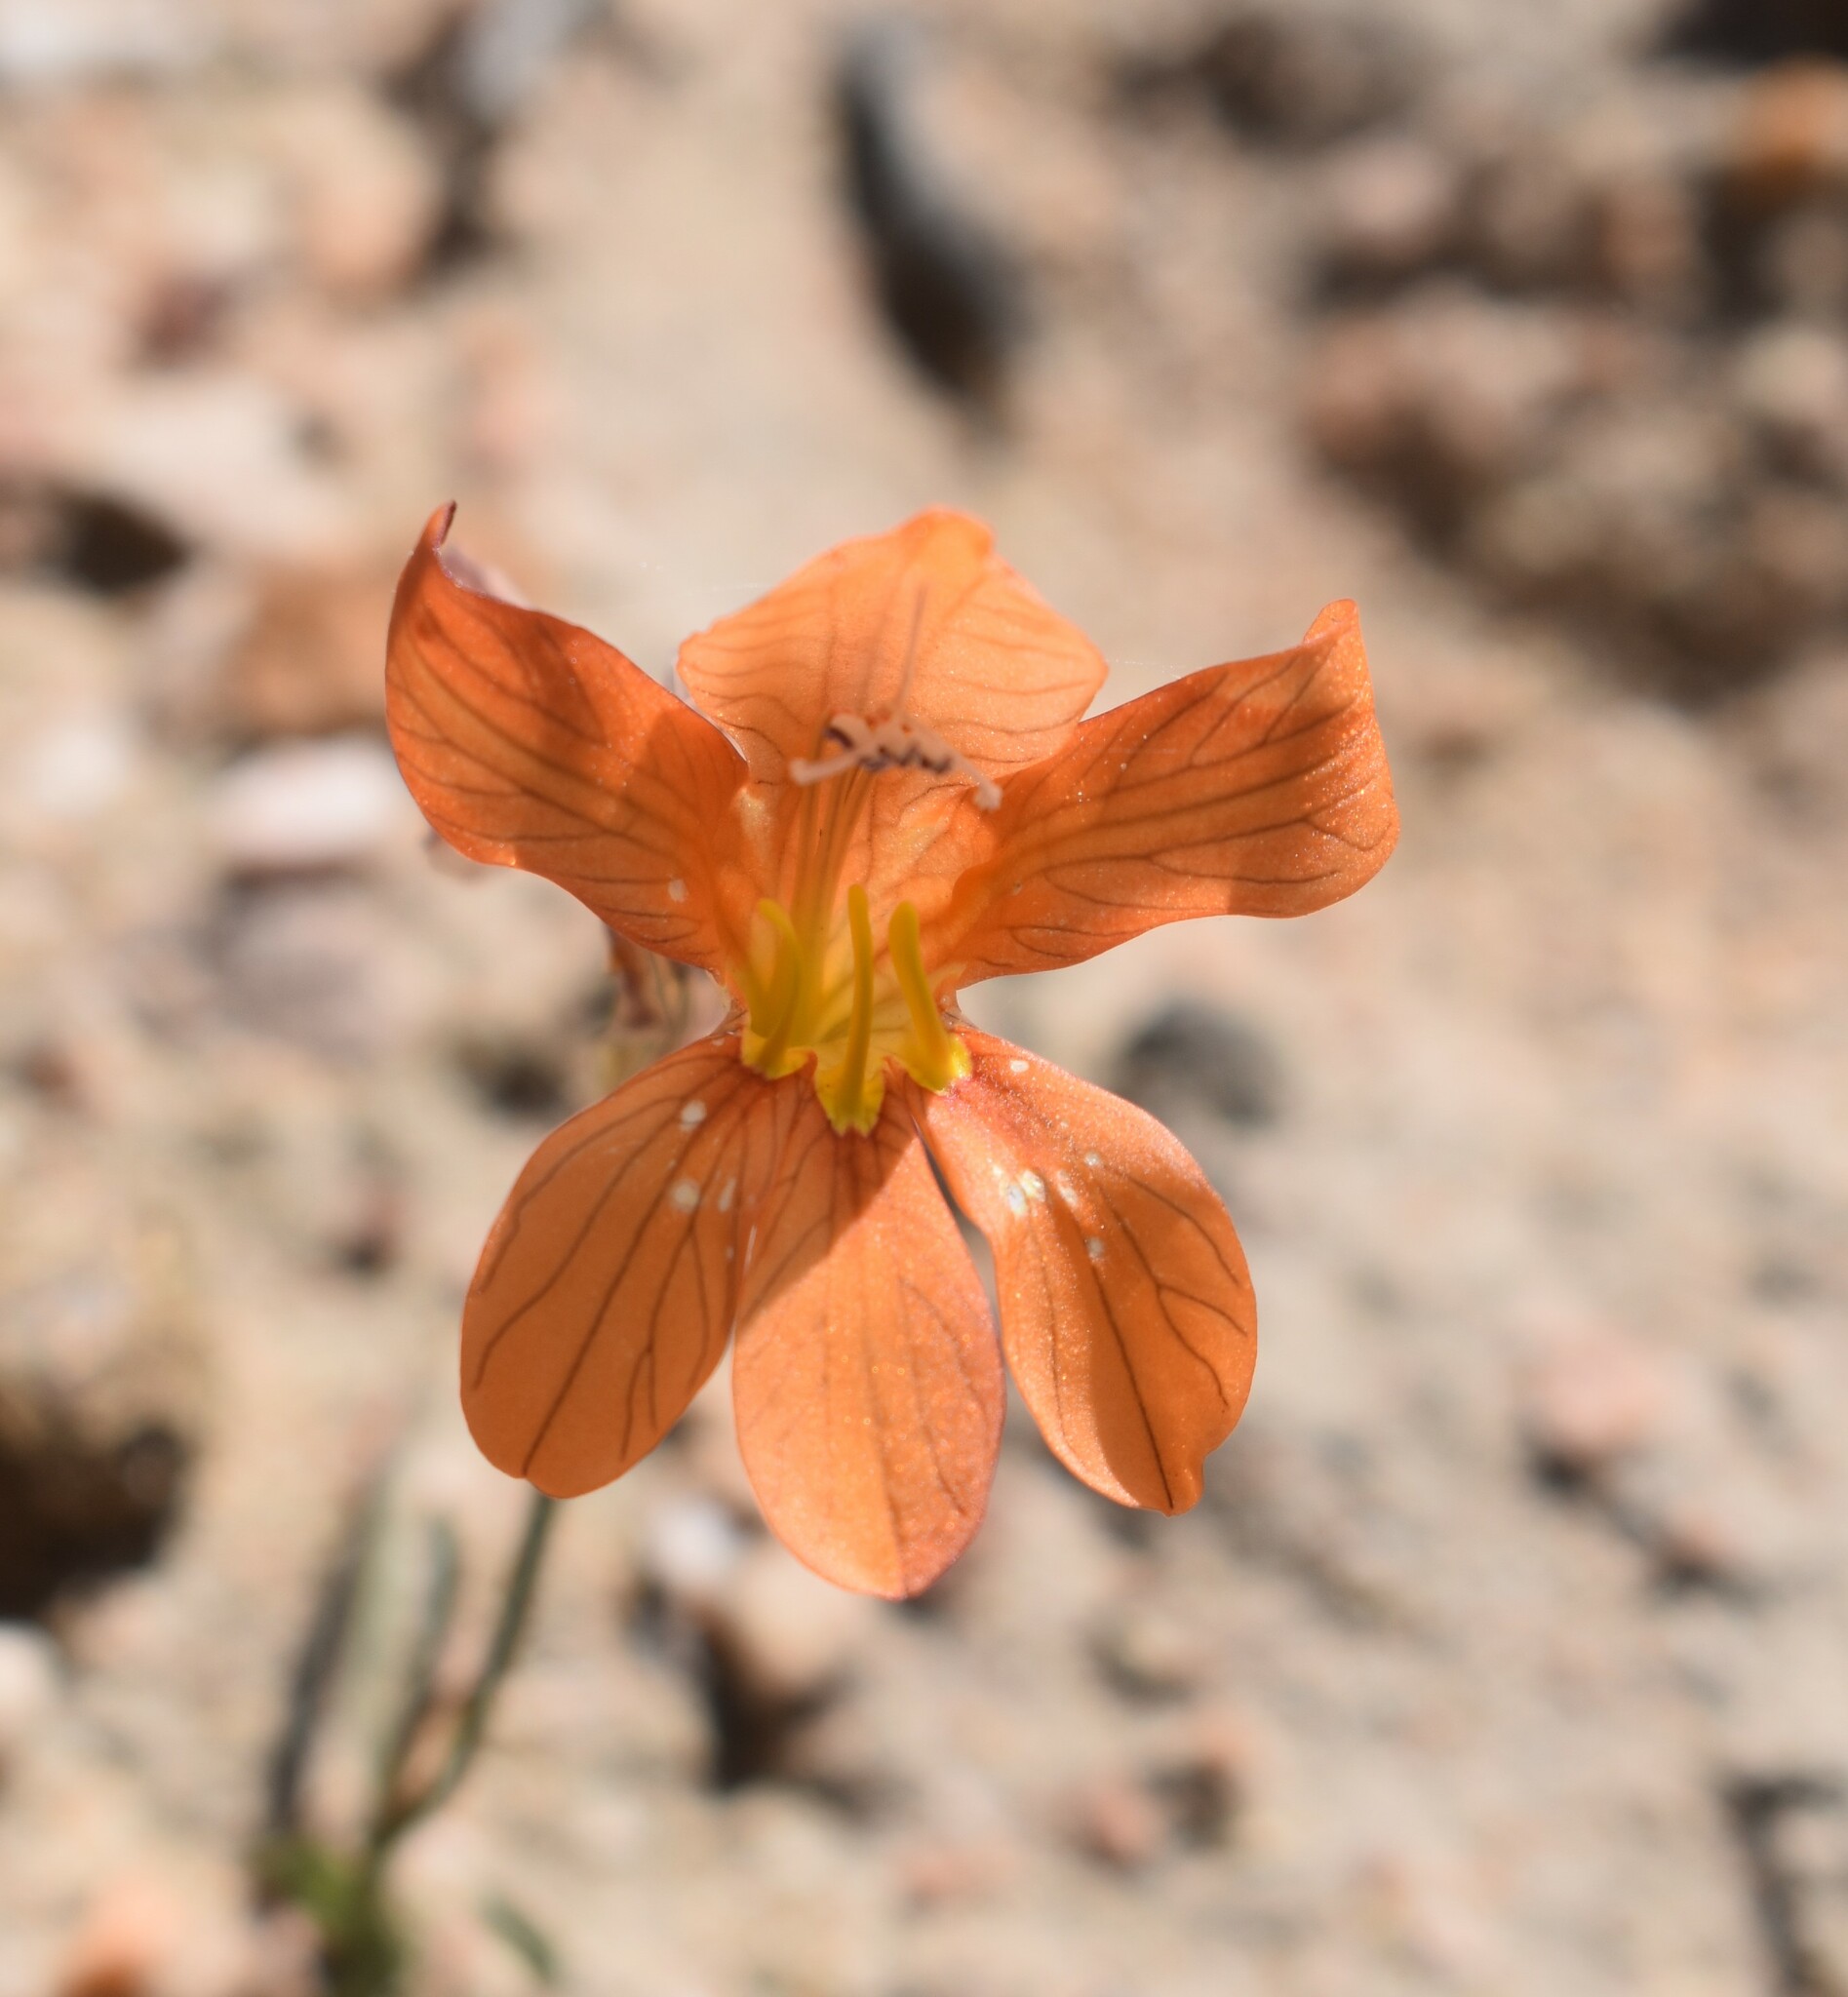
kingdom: Plantae
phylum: Tracheophyta
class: Liliopsida
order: Asparagales
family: Iridaceae
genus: Tritonia
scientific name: Tritonia securigera
